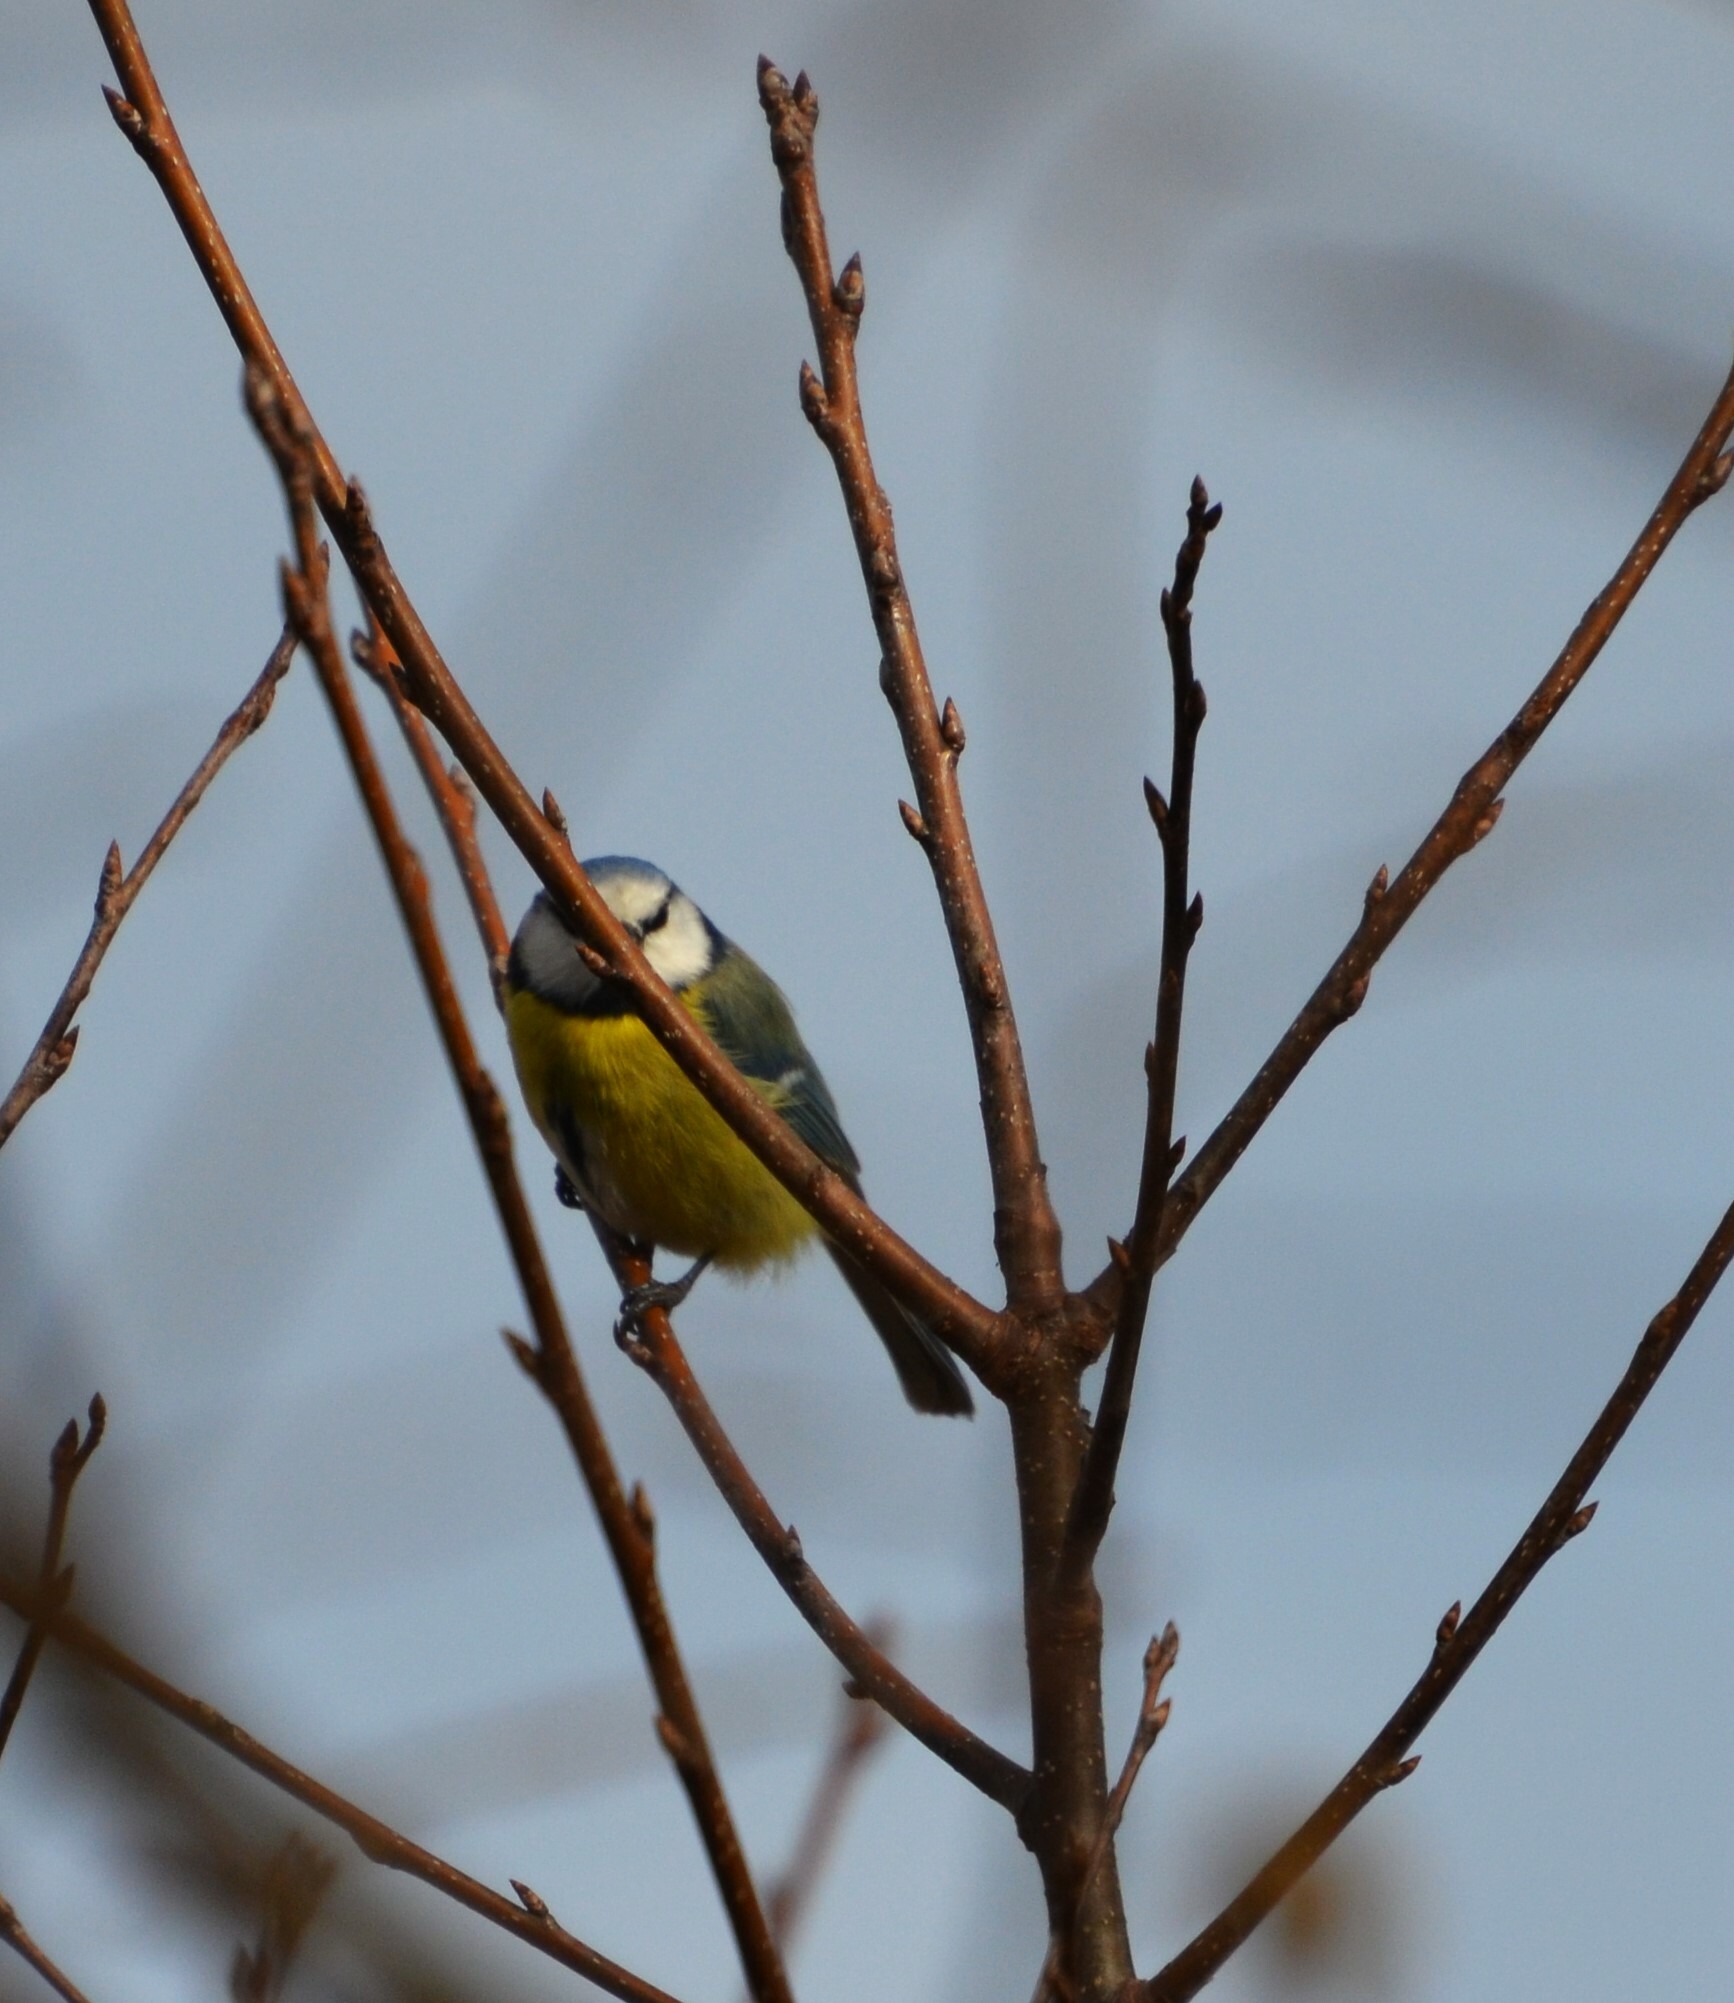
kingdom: Animalia
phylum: Chordata
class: Aves
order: Passeriformes
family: Paridae
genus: Cyanistes
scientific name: Cyanistes caeruleus
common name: Eurasian blue tit
